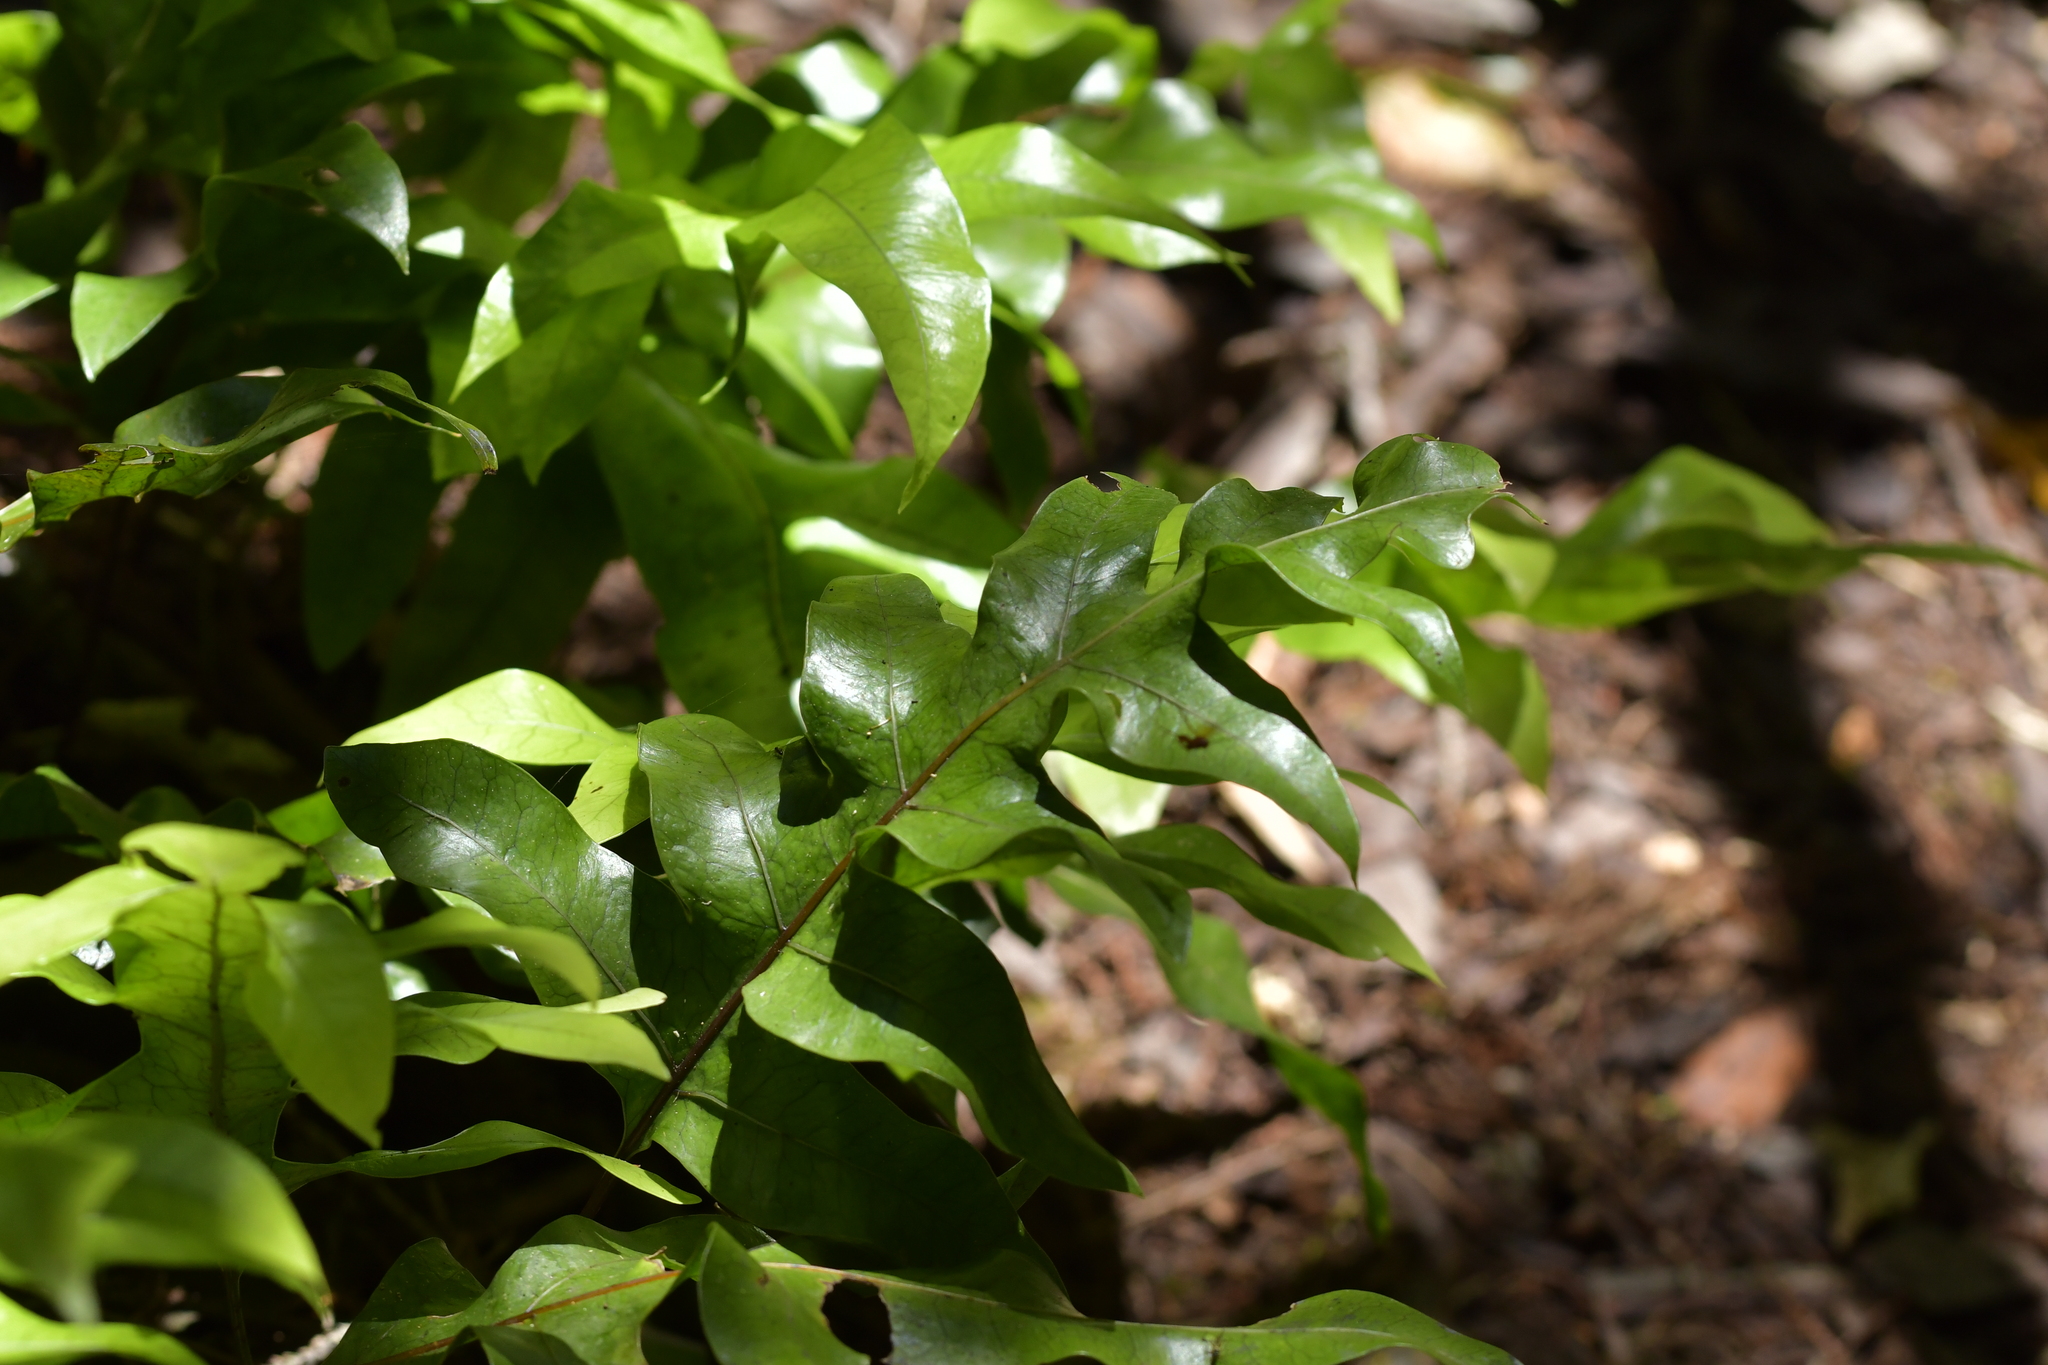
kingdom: Plantae
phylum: Tracheophyta
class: Polypodiopsida
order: Polypodiales
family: Polypodiaceae
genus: Lecanopteris
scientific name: Lecanopteris pustulata
